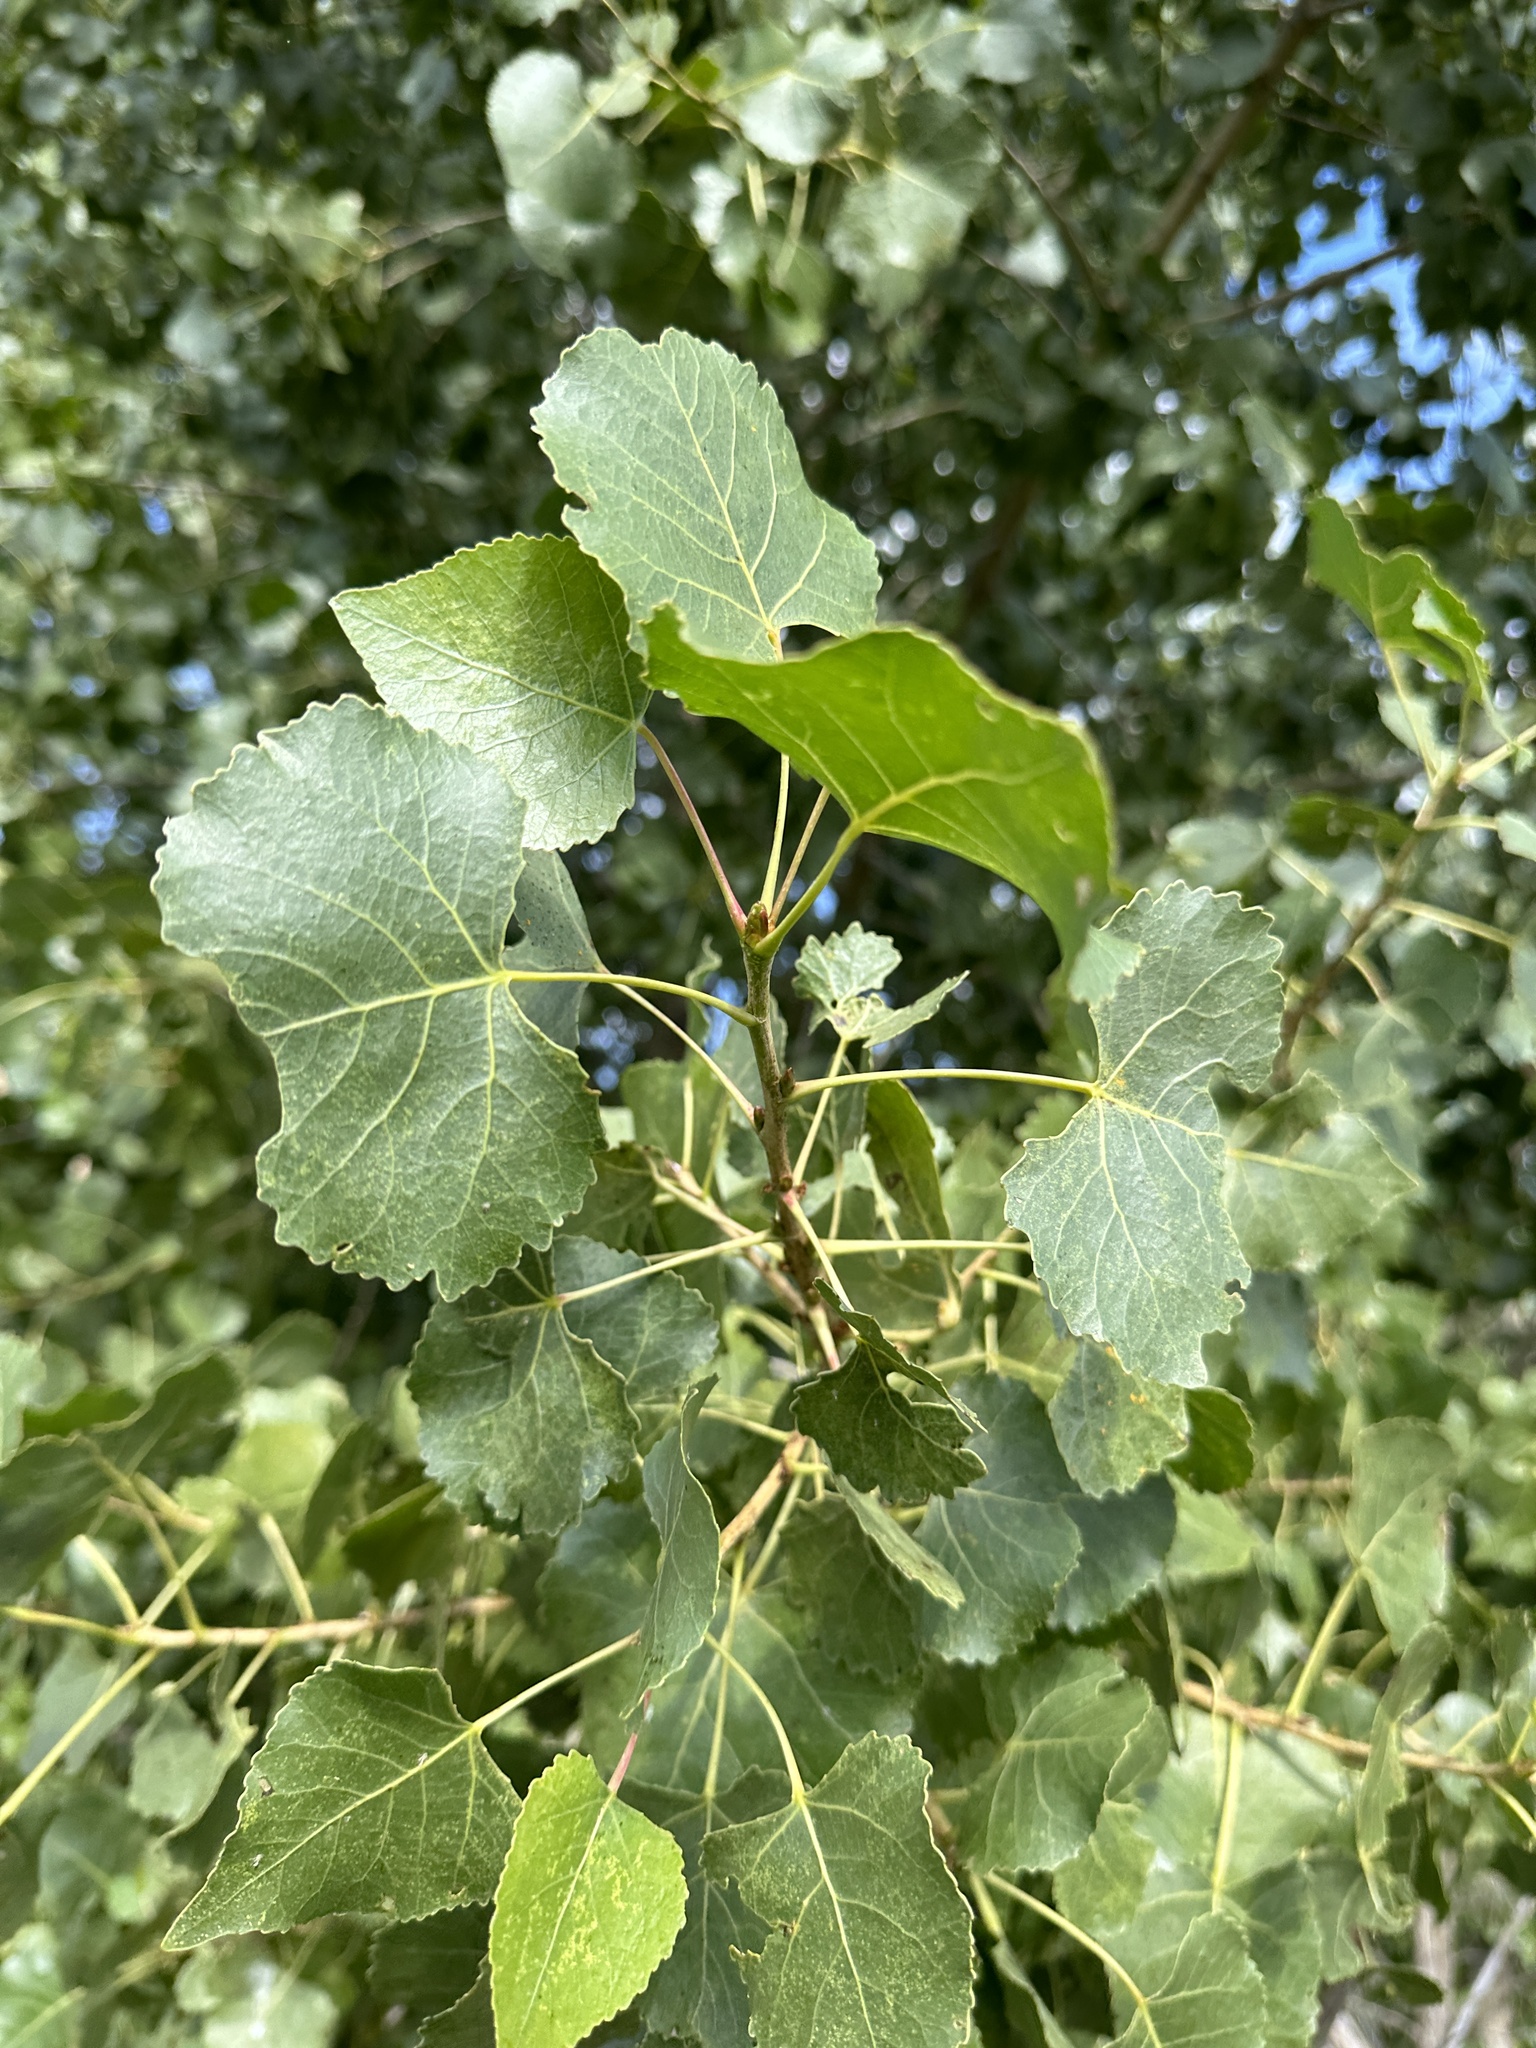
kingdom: Plantae
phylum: Tracheophyta
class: Magnoliopsida
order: Malpighiales
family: Salicaceae
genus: Populus
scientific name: Populus fremontii
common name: Fremont's cottonwood
